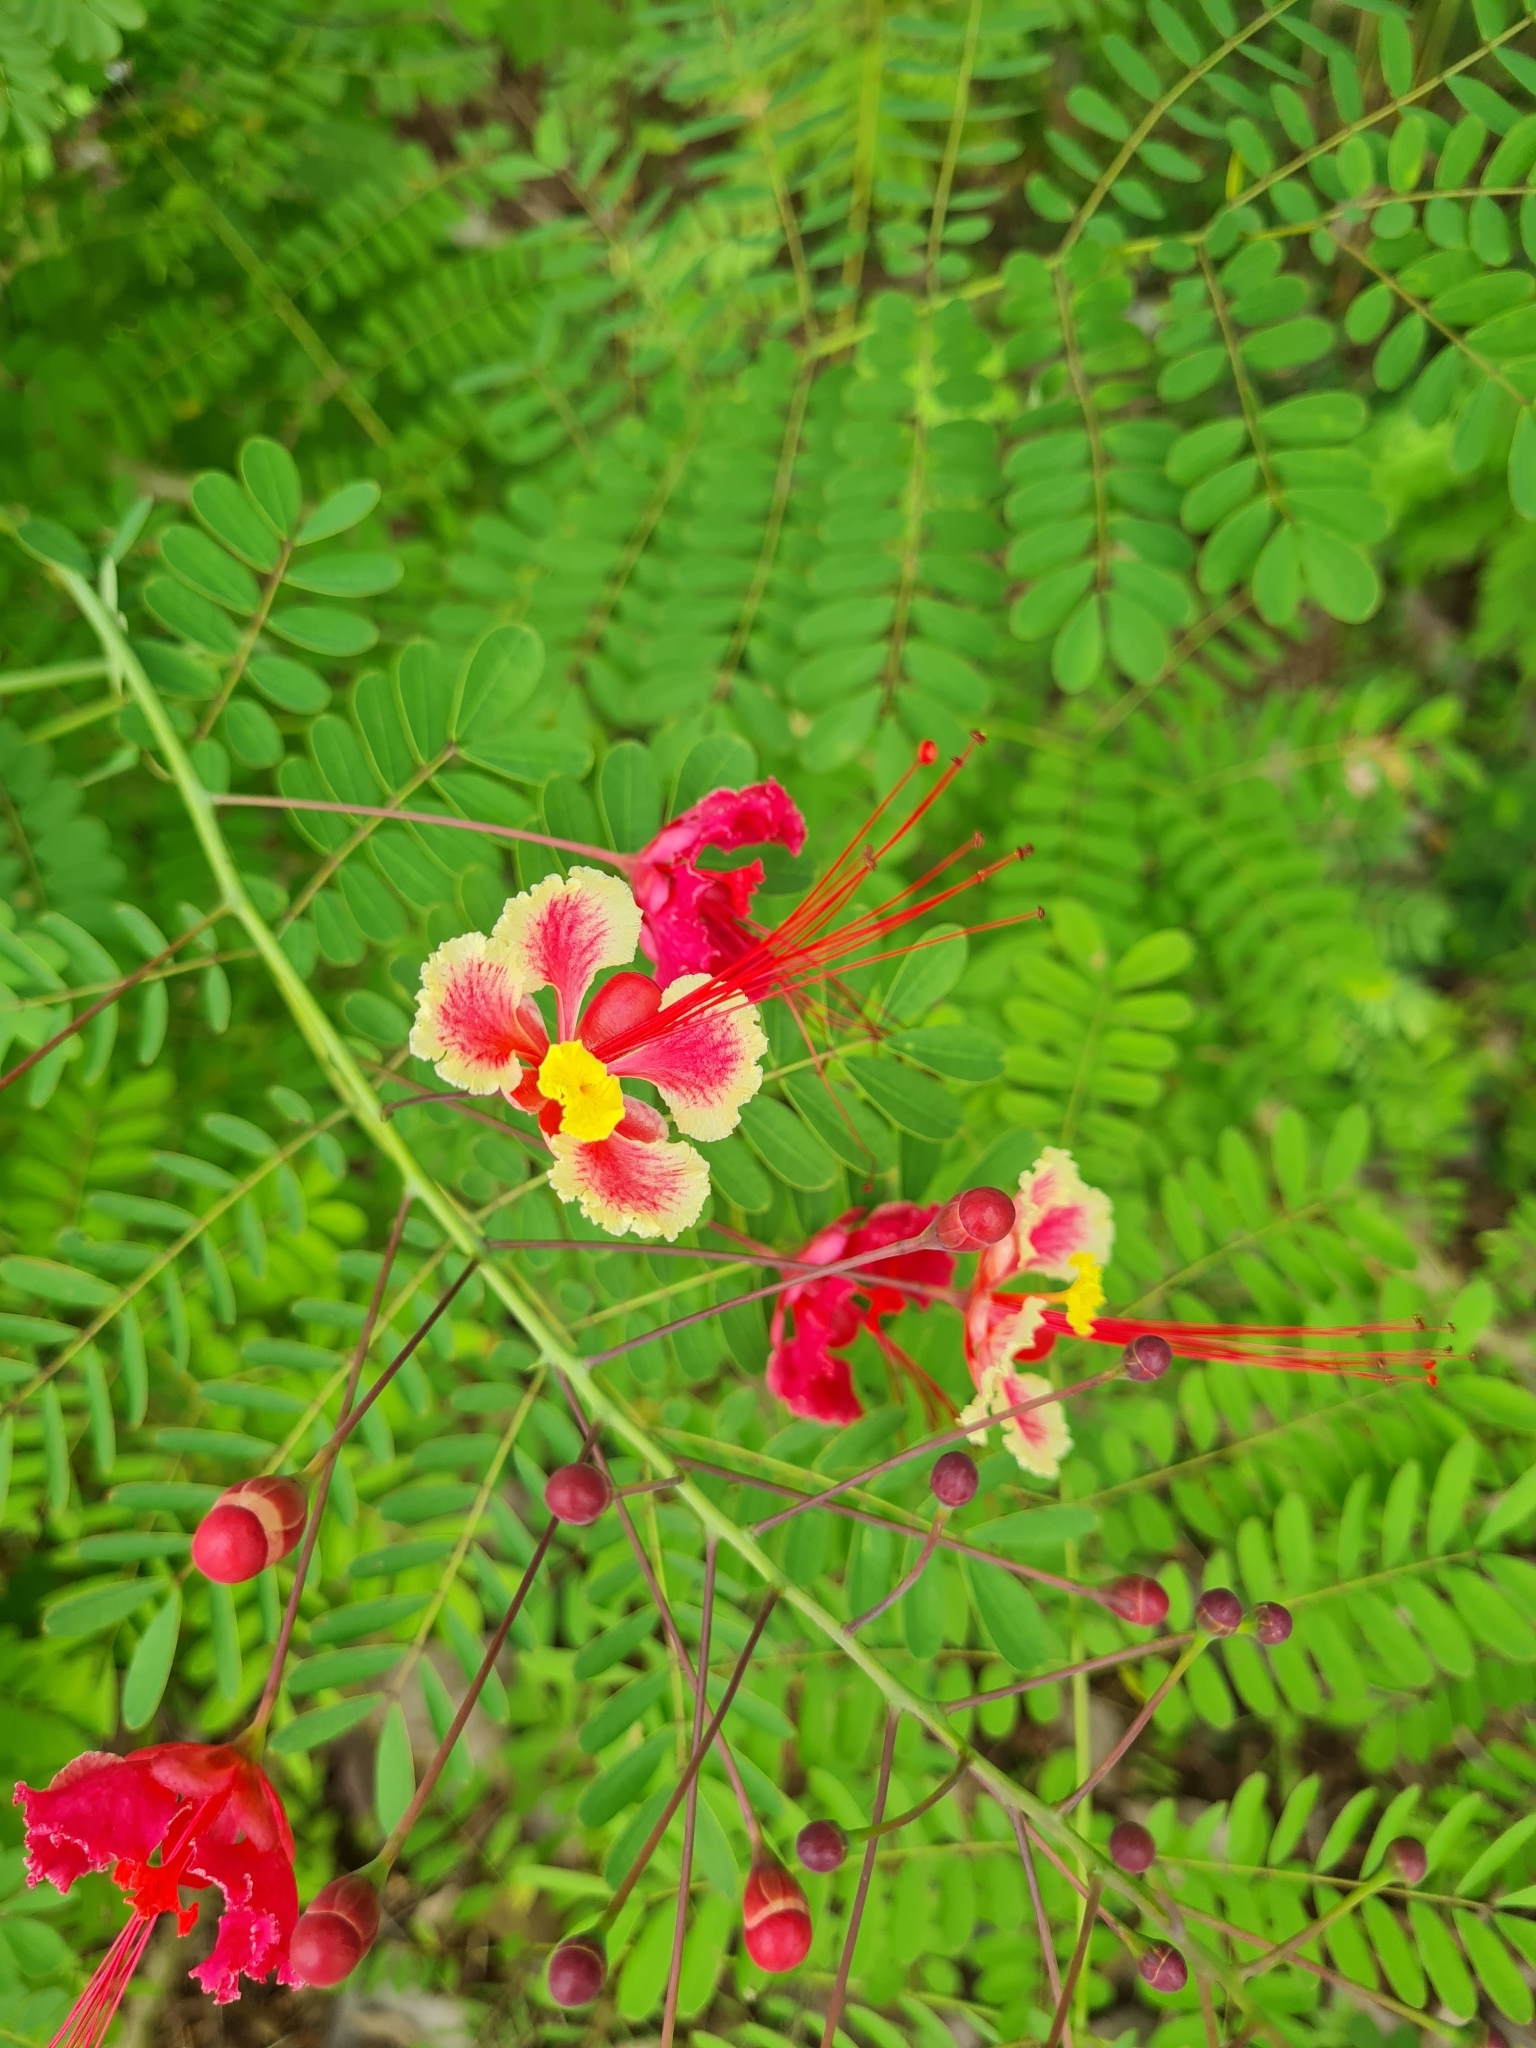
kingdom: Plantae
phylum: Tracheophyta
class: Magnoliopsida
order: Fabales
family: Fabaceae
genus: Caesalpinia
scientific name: Caesalpinia pulcherrima
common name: Pride-of-barbados
